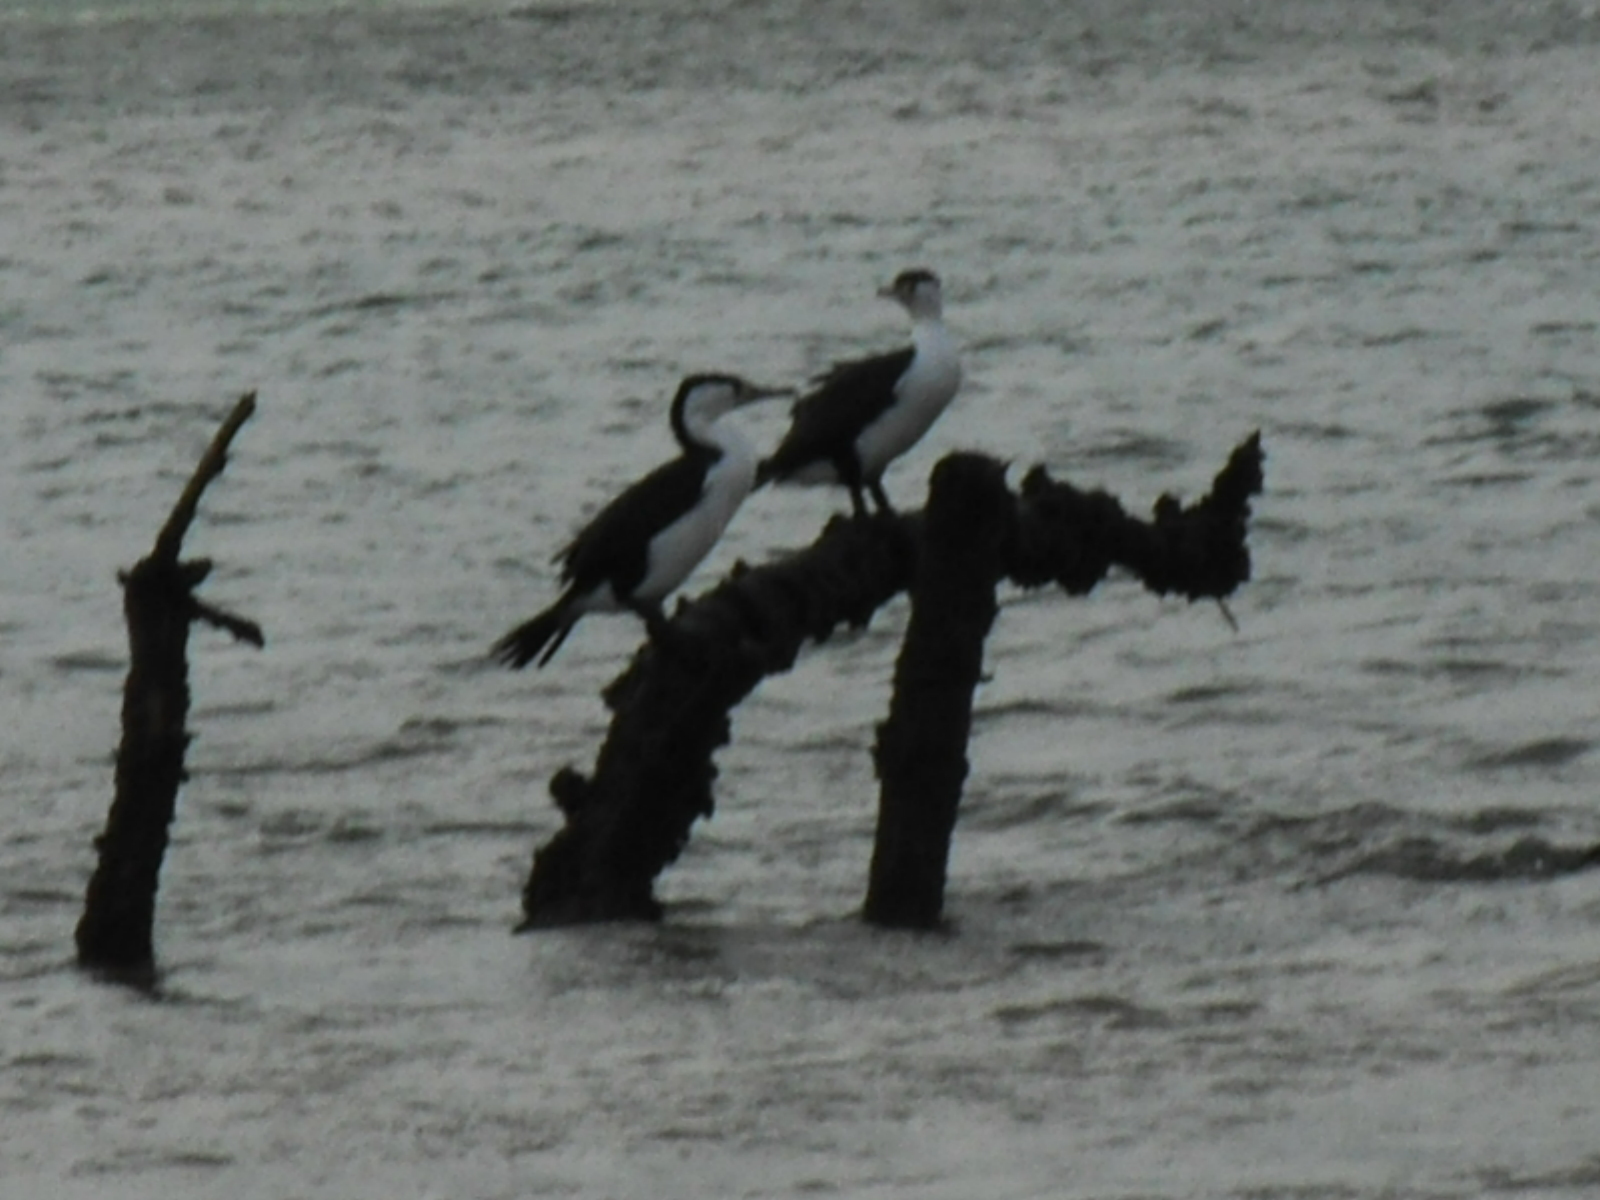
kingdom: Animalia
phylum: Chordata
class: Aves
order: Suliformes
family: Phalacrocoracidae
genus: Phalacrocorax
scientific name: Phalacrocorax varius
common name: Pied cormorant
